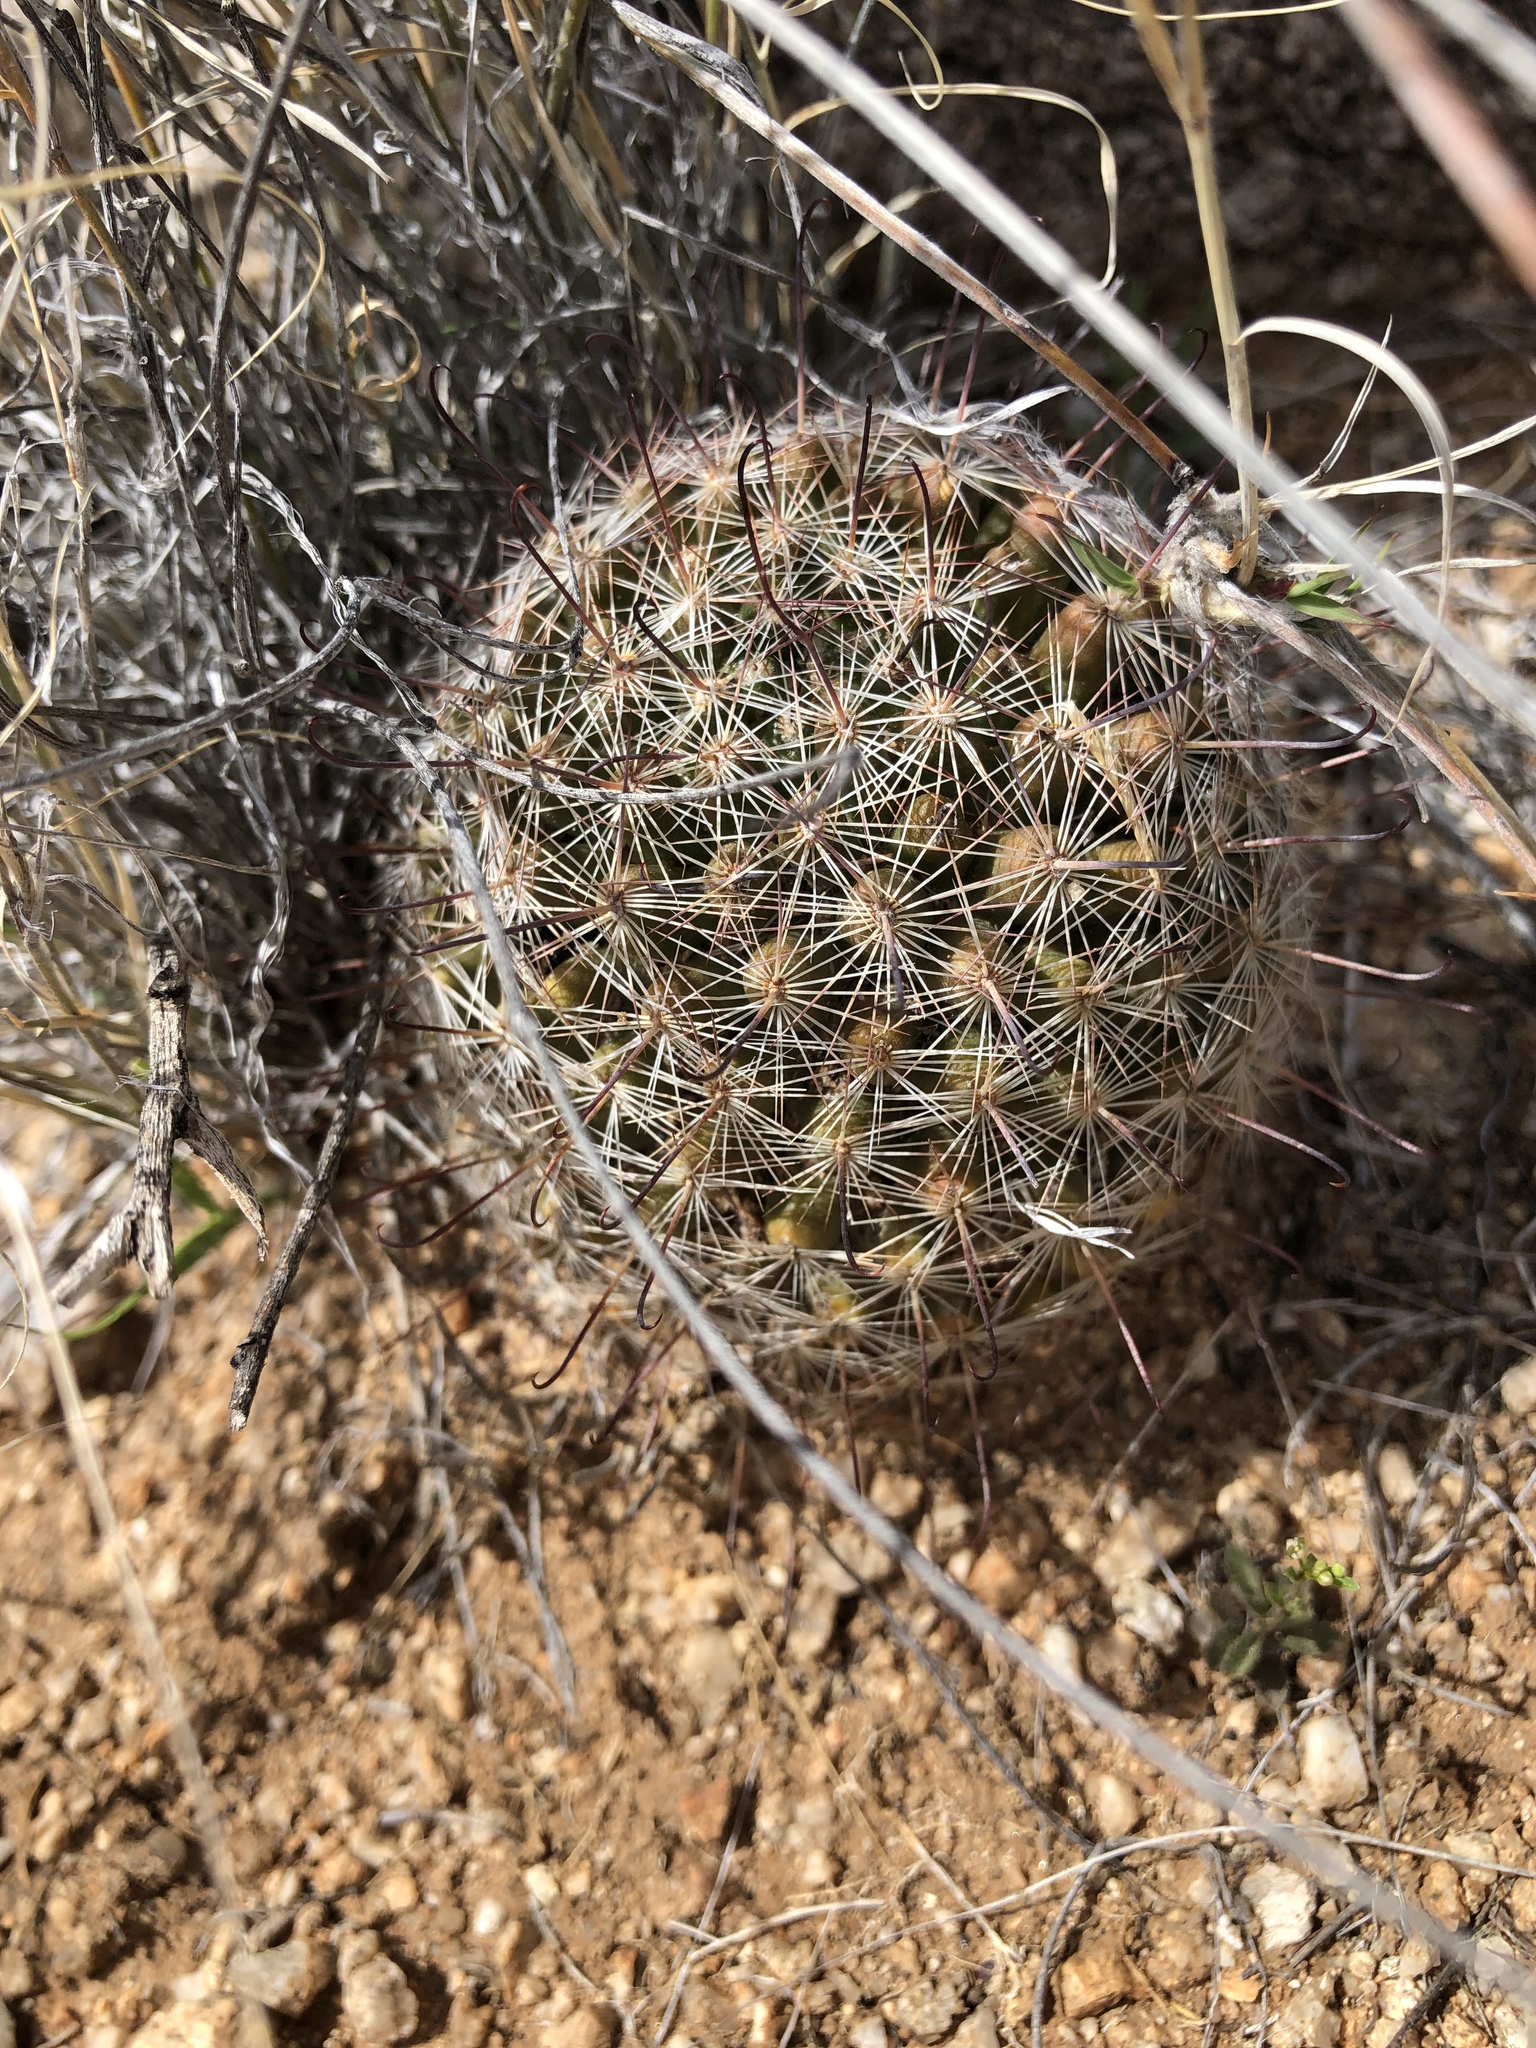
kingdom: Plantae
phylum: Tracheophyta
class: Magnoliopsida
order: Caryophyllales
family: Cactaceae
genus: Cochemiea
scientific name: Cochemiea grahamii
